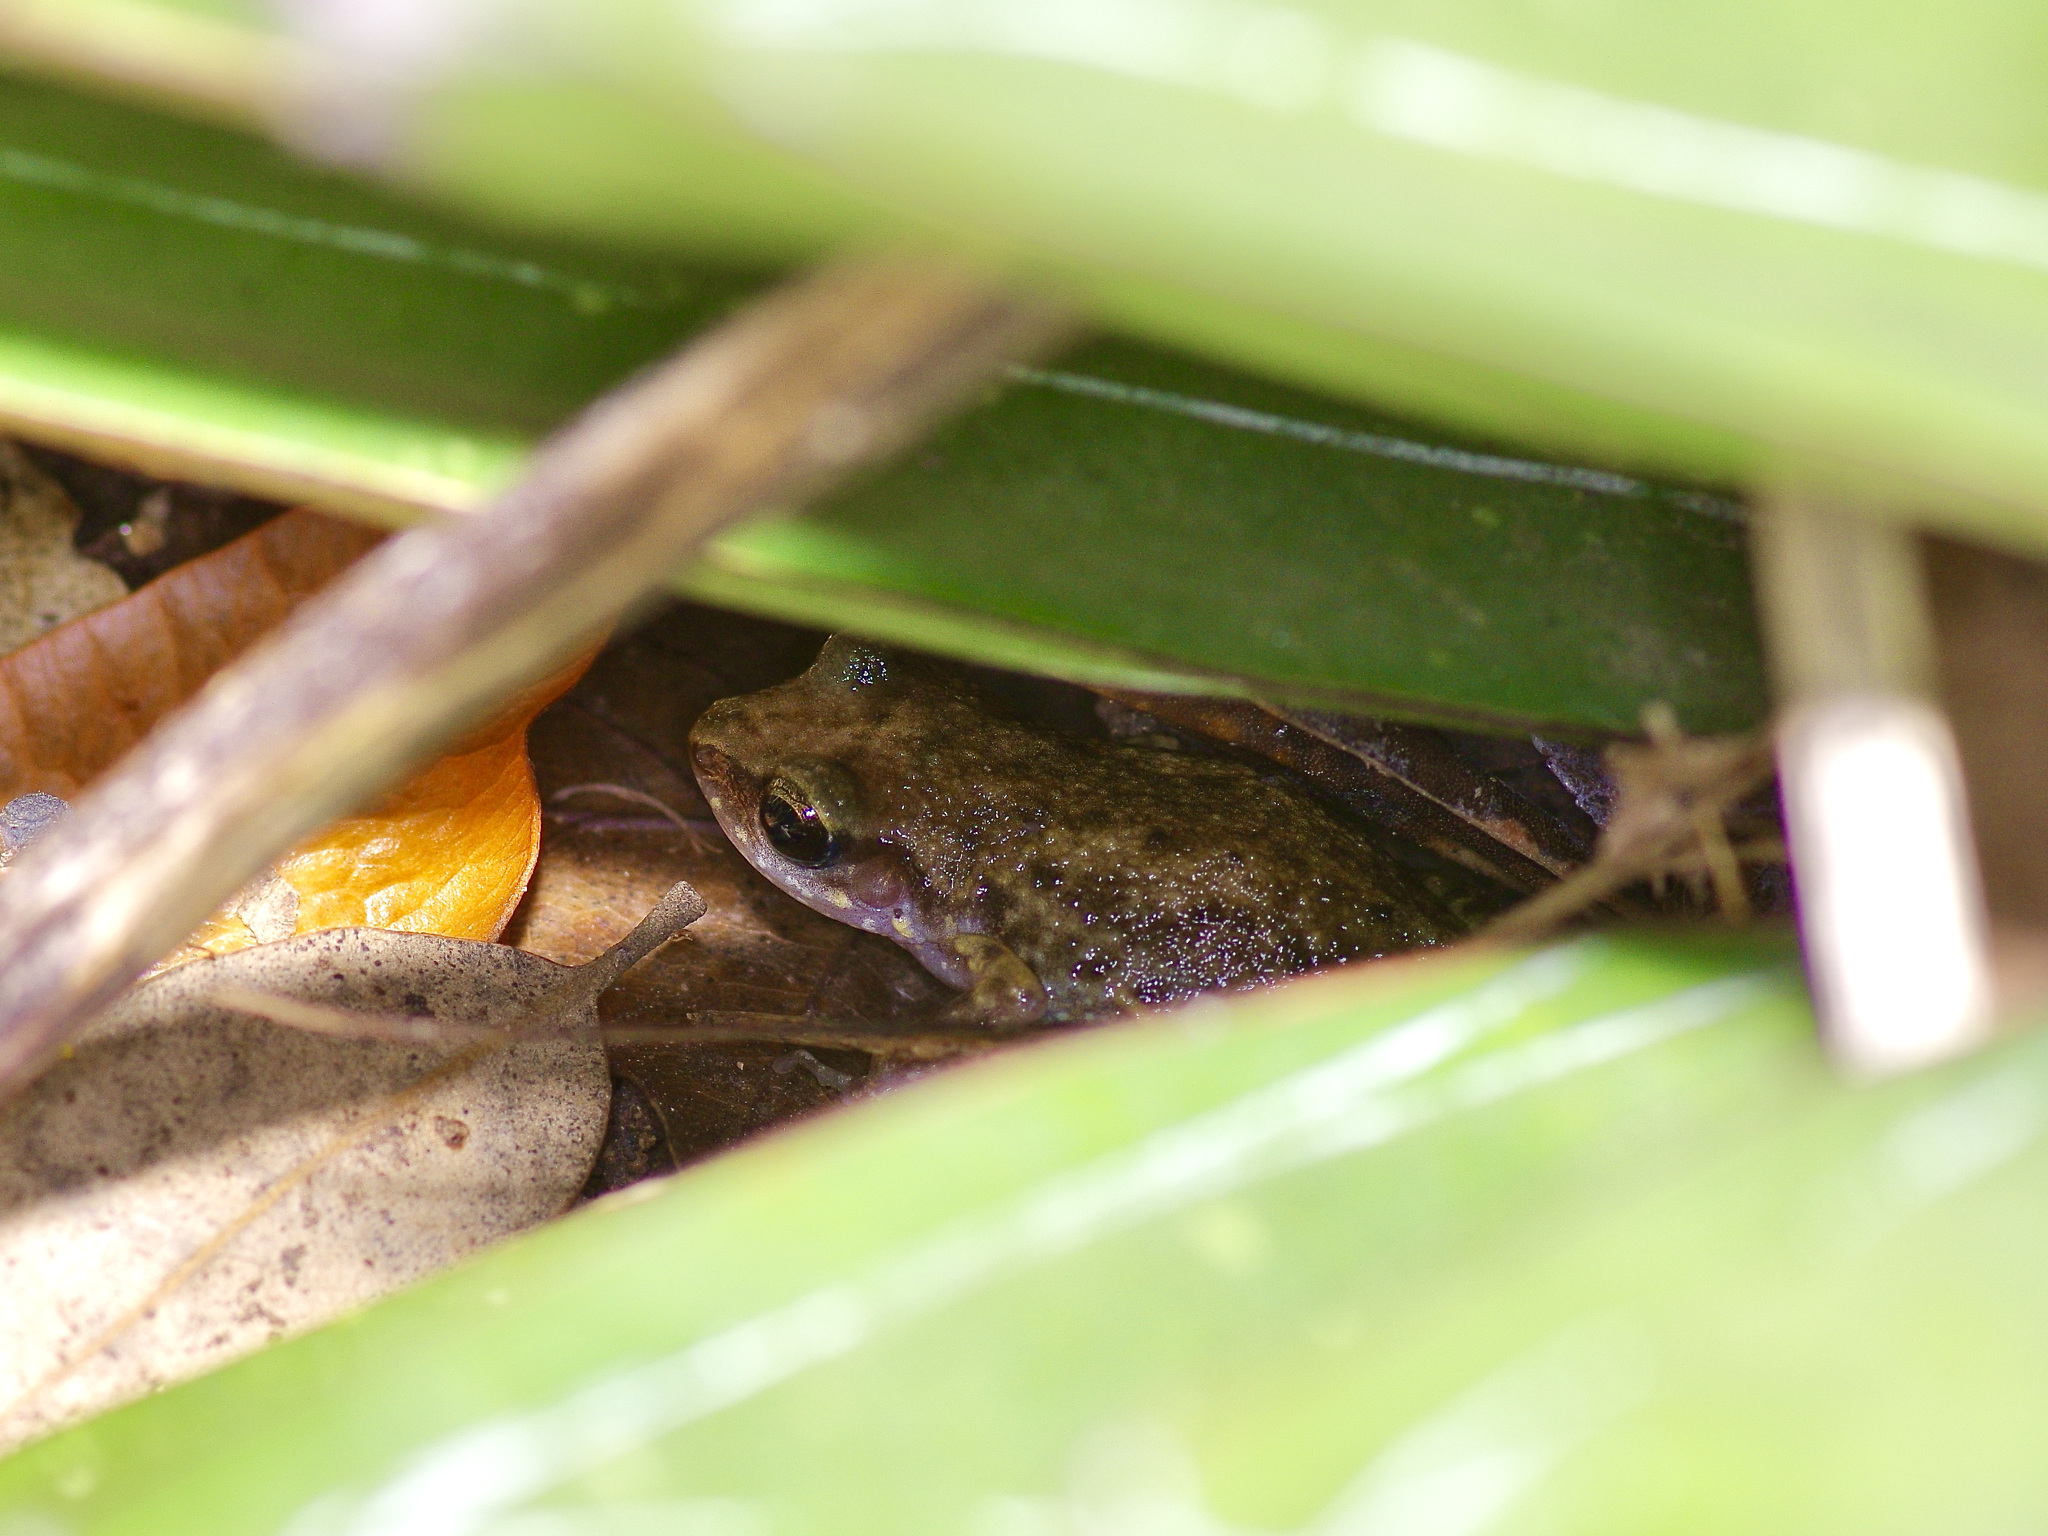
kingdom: Animalia
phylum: Chordata
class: Amphibia
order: Anura
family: Eleutherodactylidae
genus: Eleutherodactylus
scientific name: Eleutherodactylus campi
